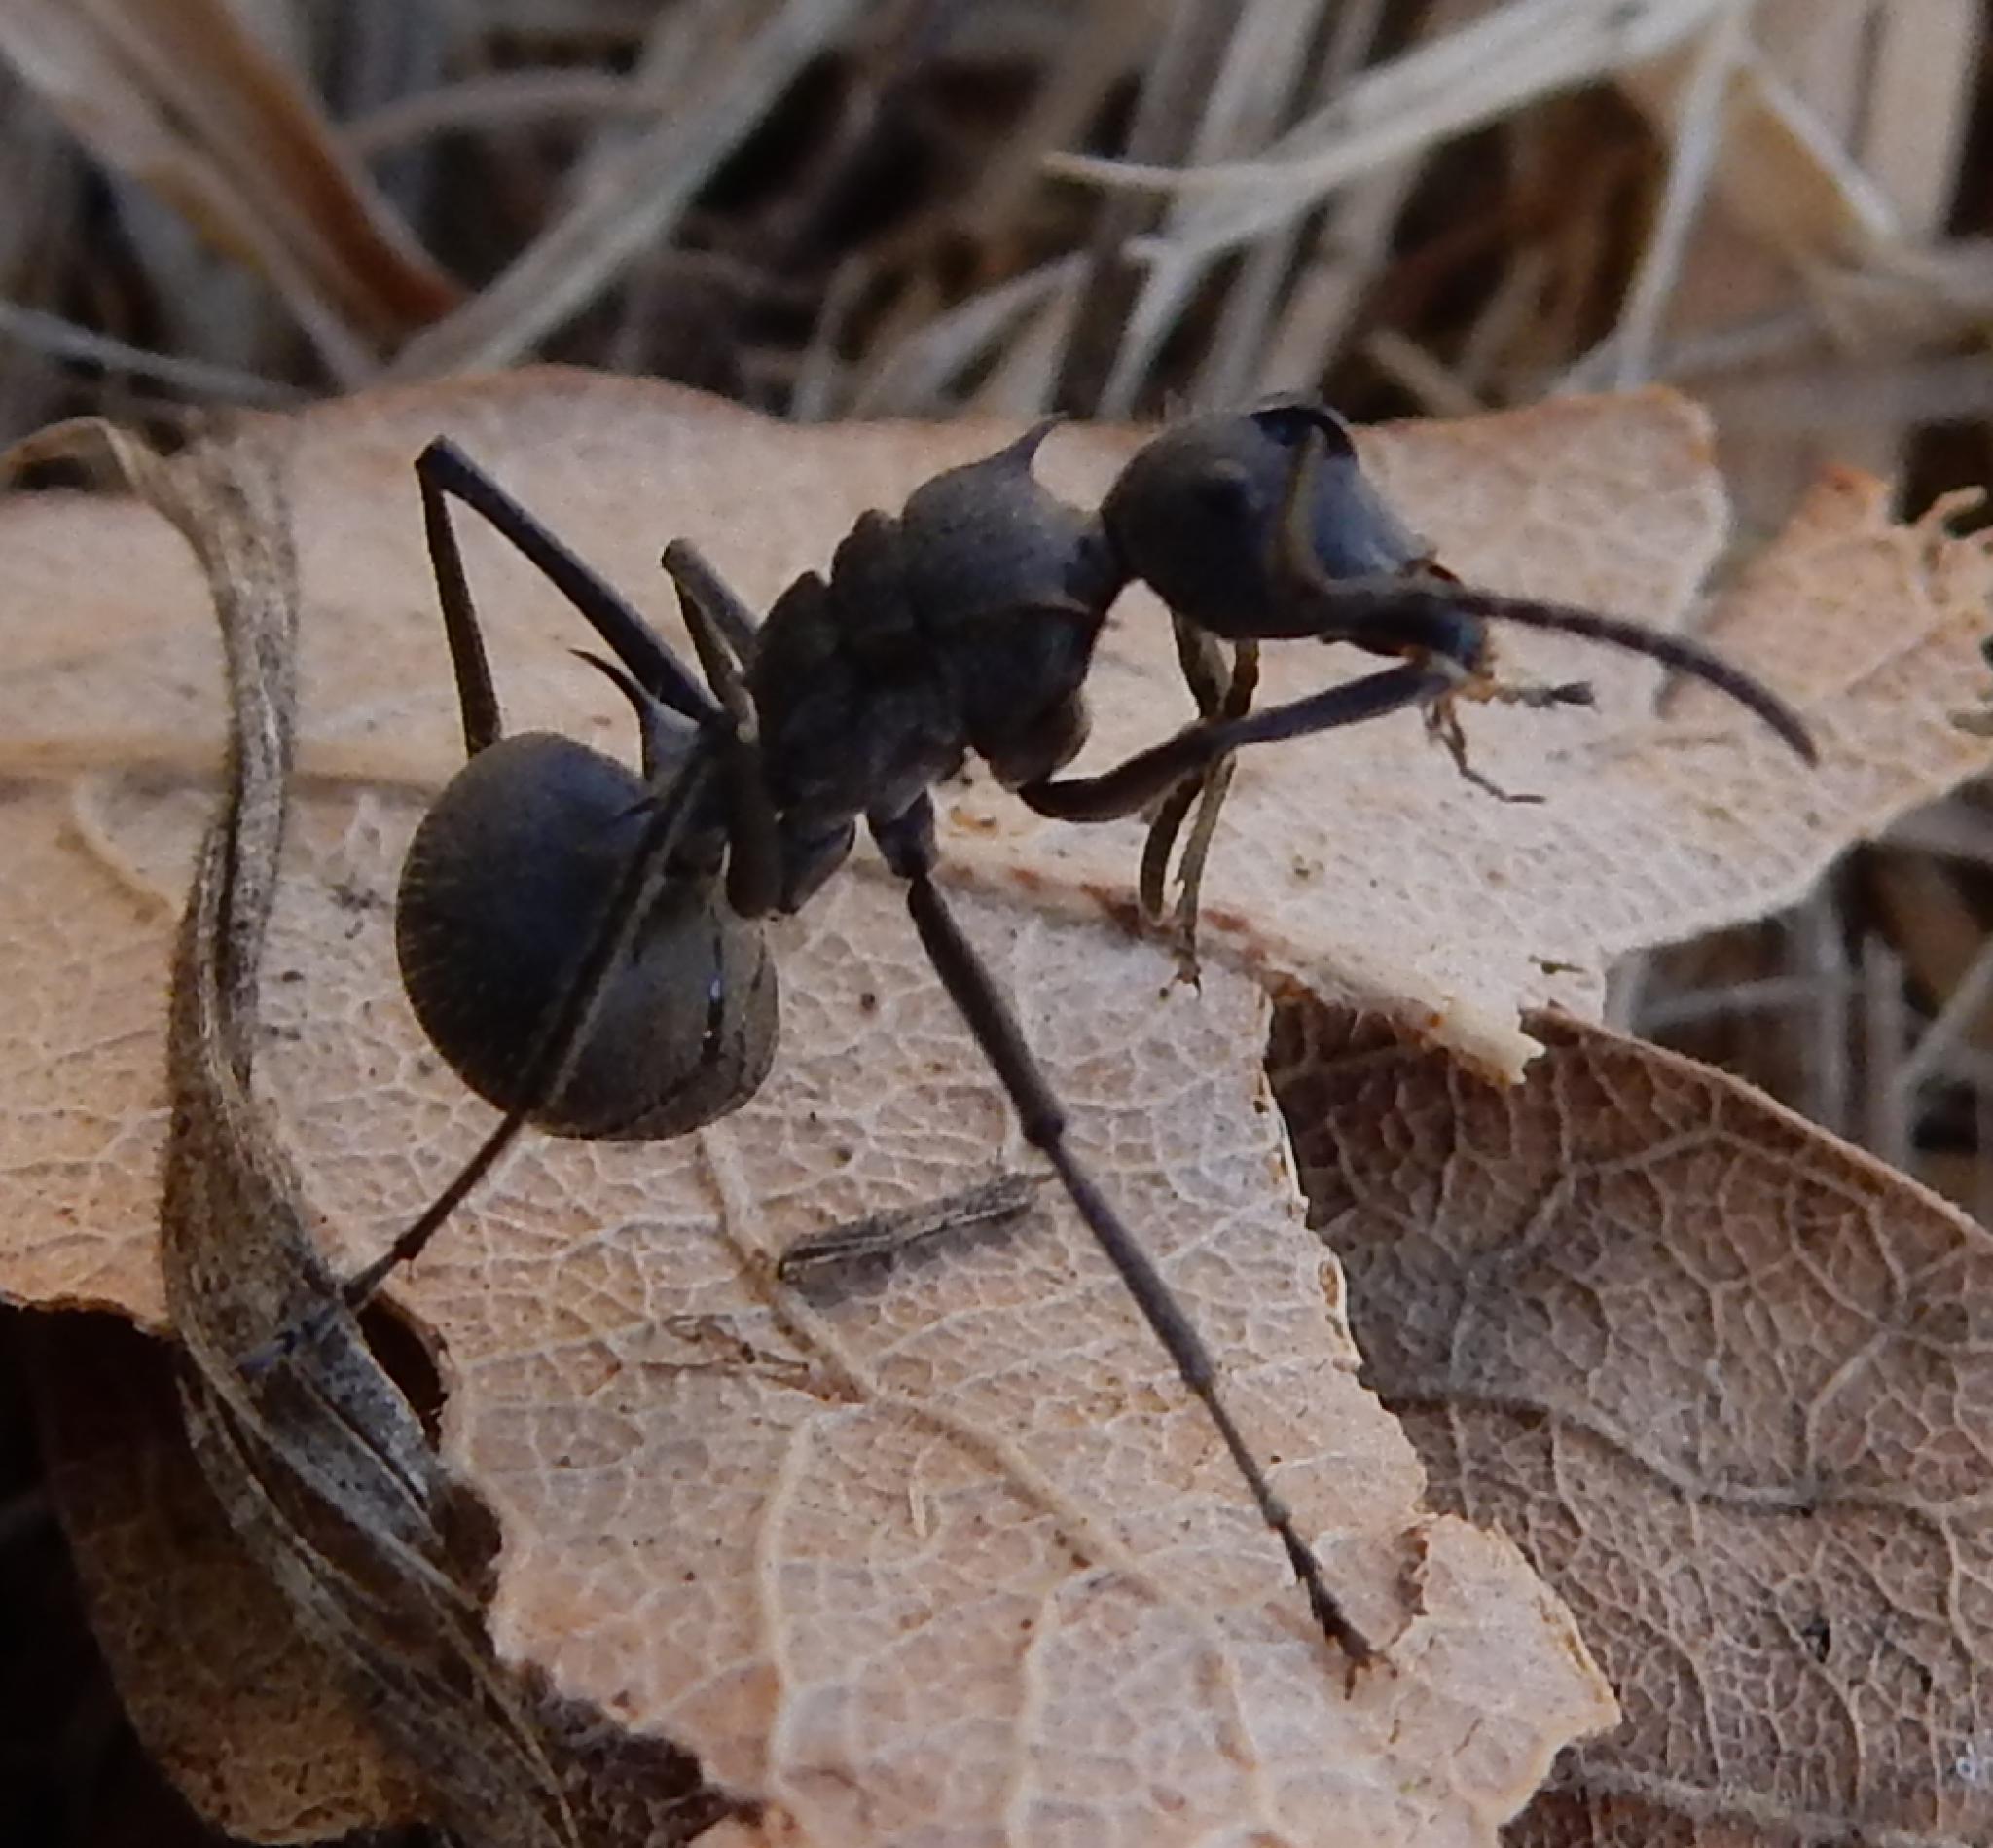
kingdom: Animalia
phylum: Arthropoda
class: Insecta
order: Hymenoptera
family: Formicidae
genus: Polyrhachis
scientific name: Polyrhachis schistacea
